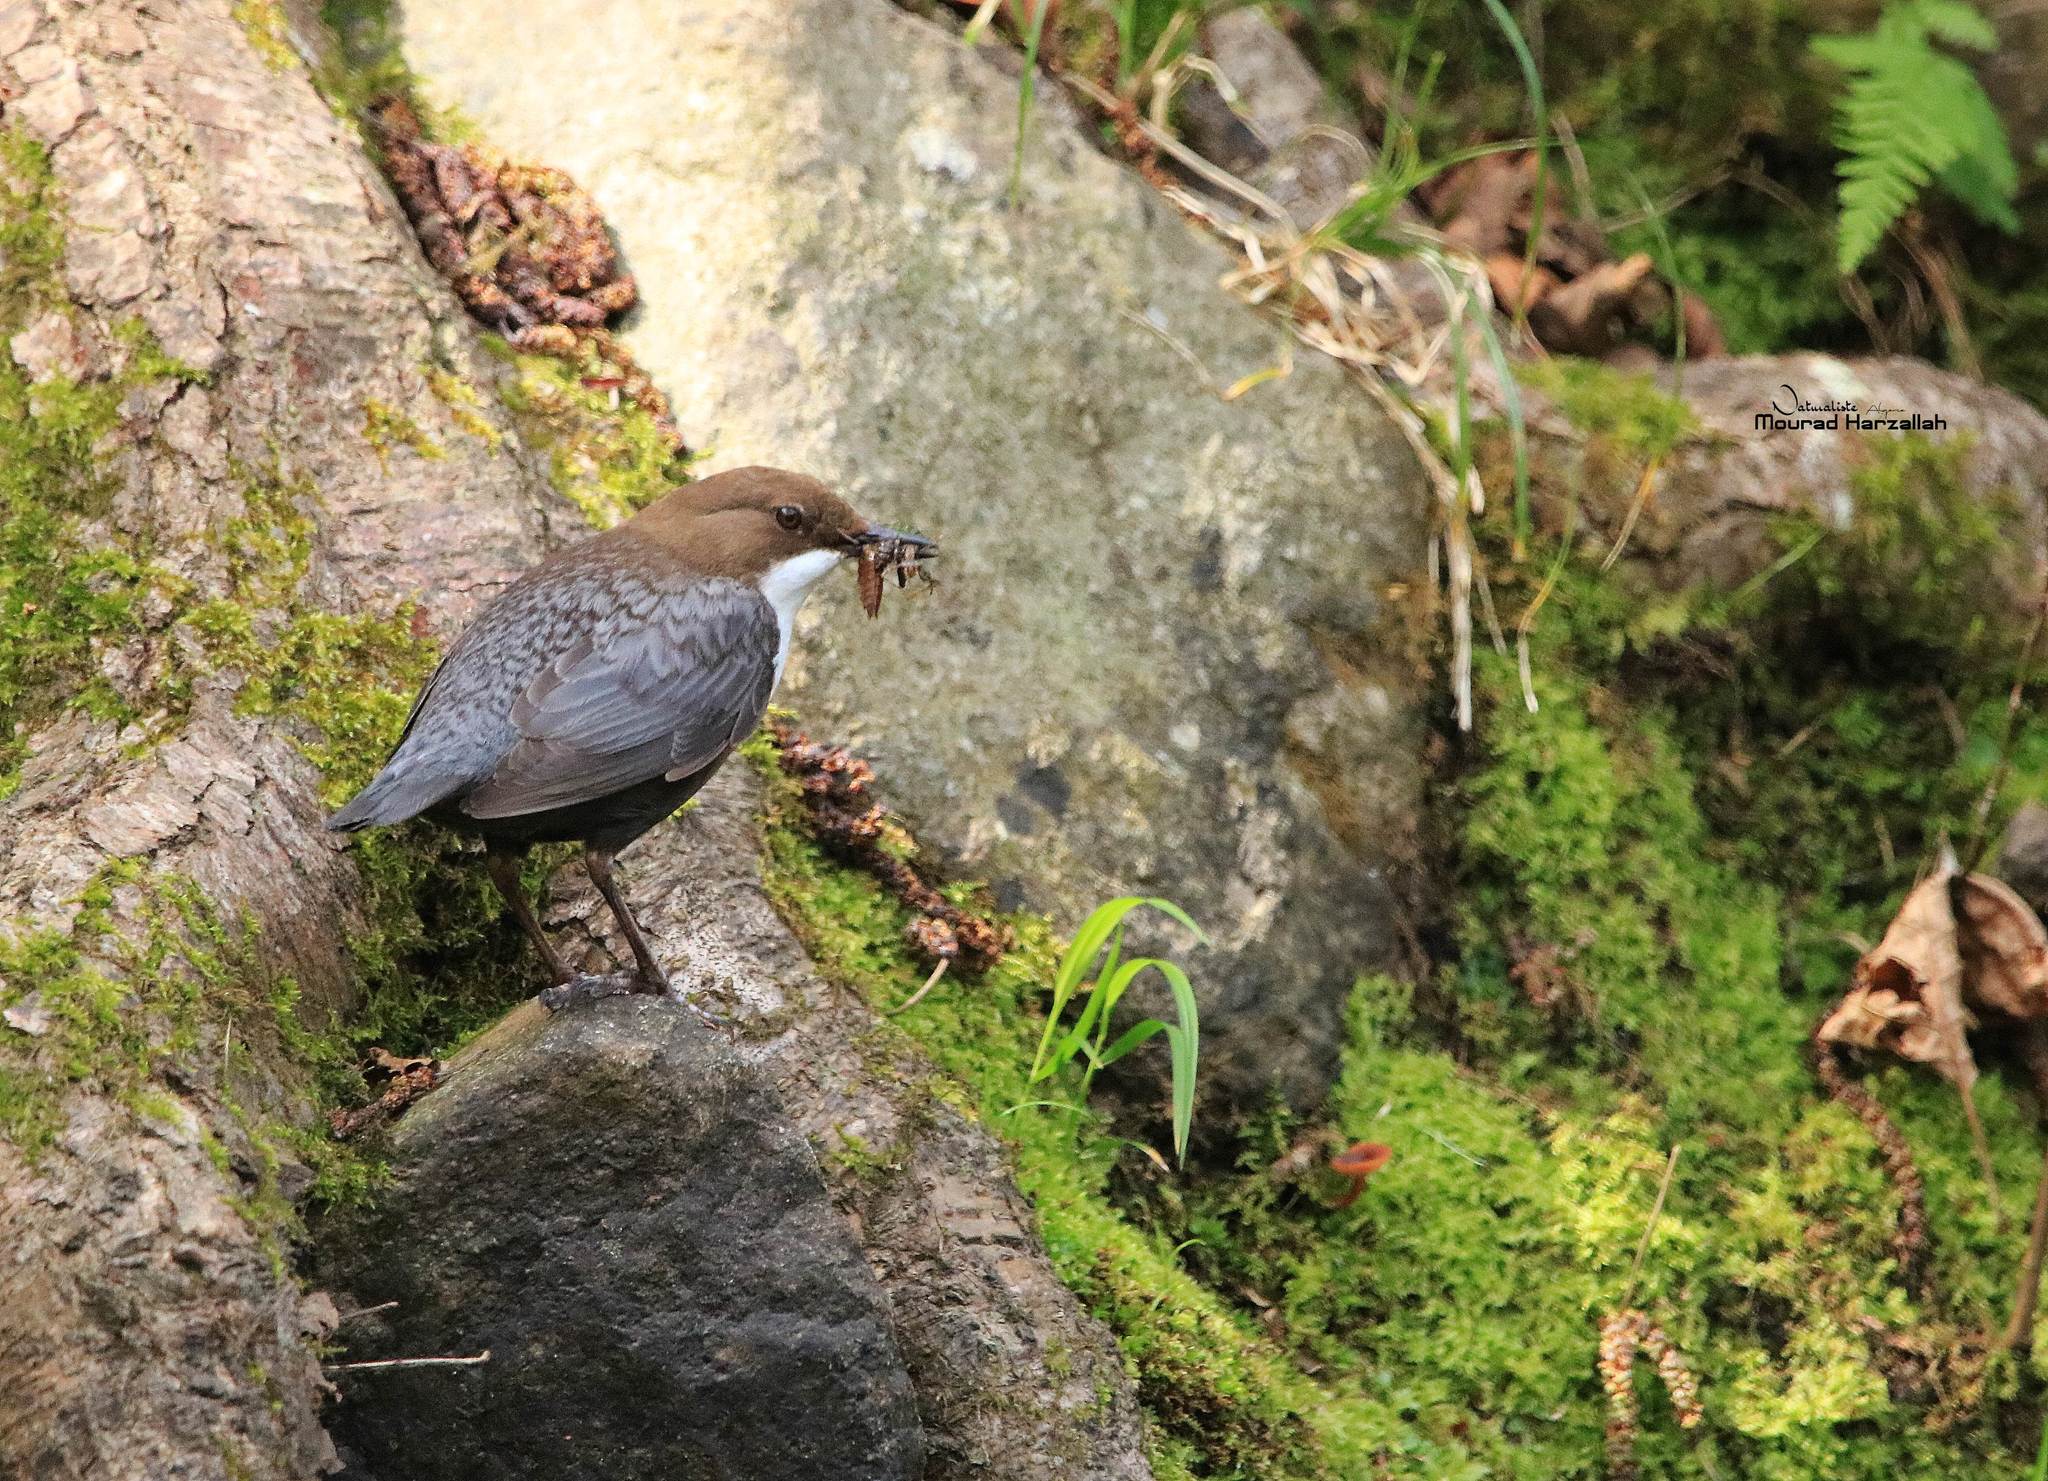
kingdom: Animalia
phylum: Chordata
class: Aves
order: Passeriformes
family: Cinclidae
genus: Cinclus
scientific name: Cinclus cinclus
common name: White-throated dipper
